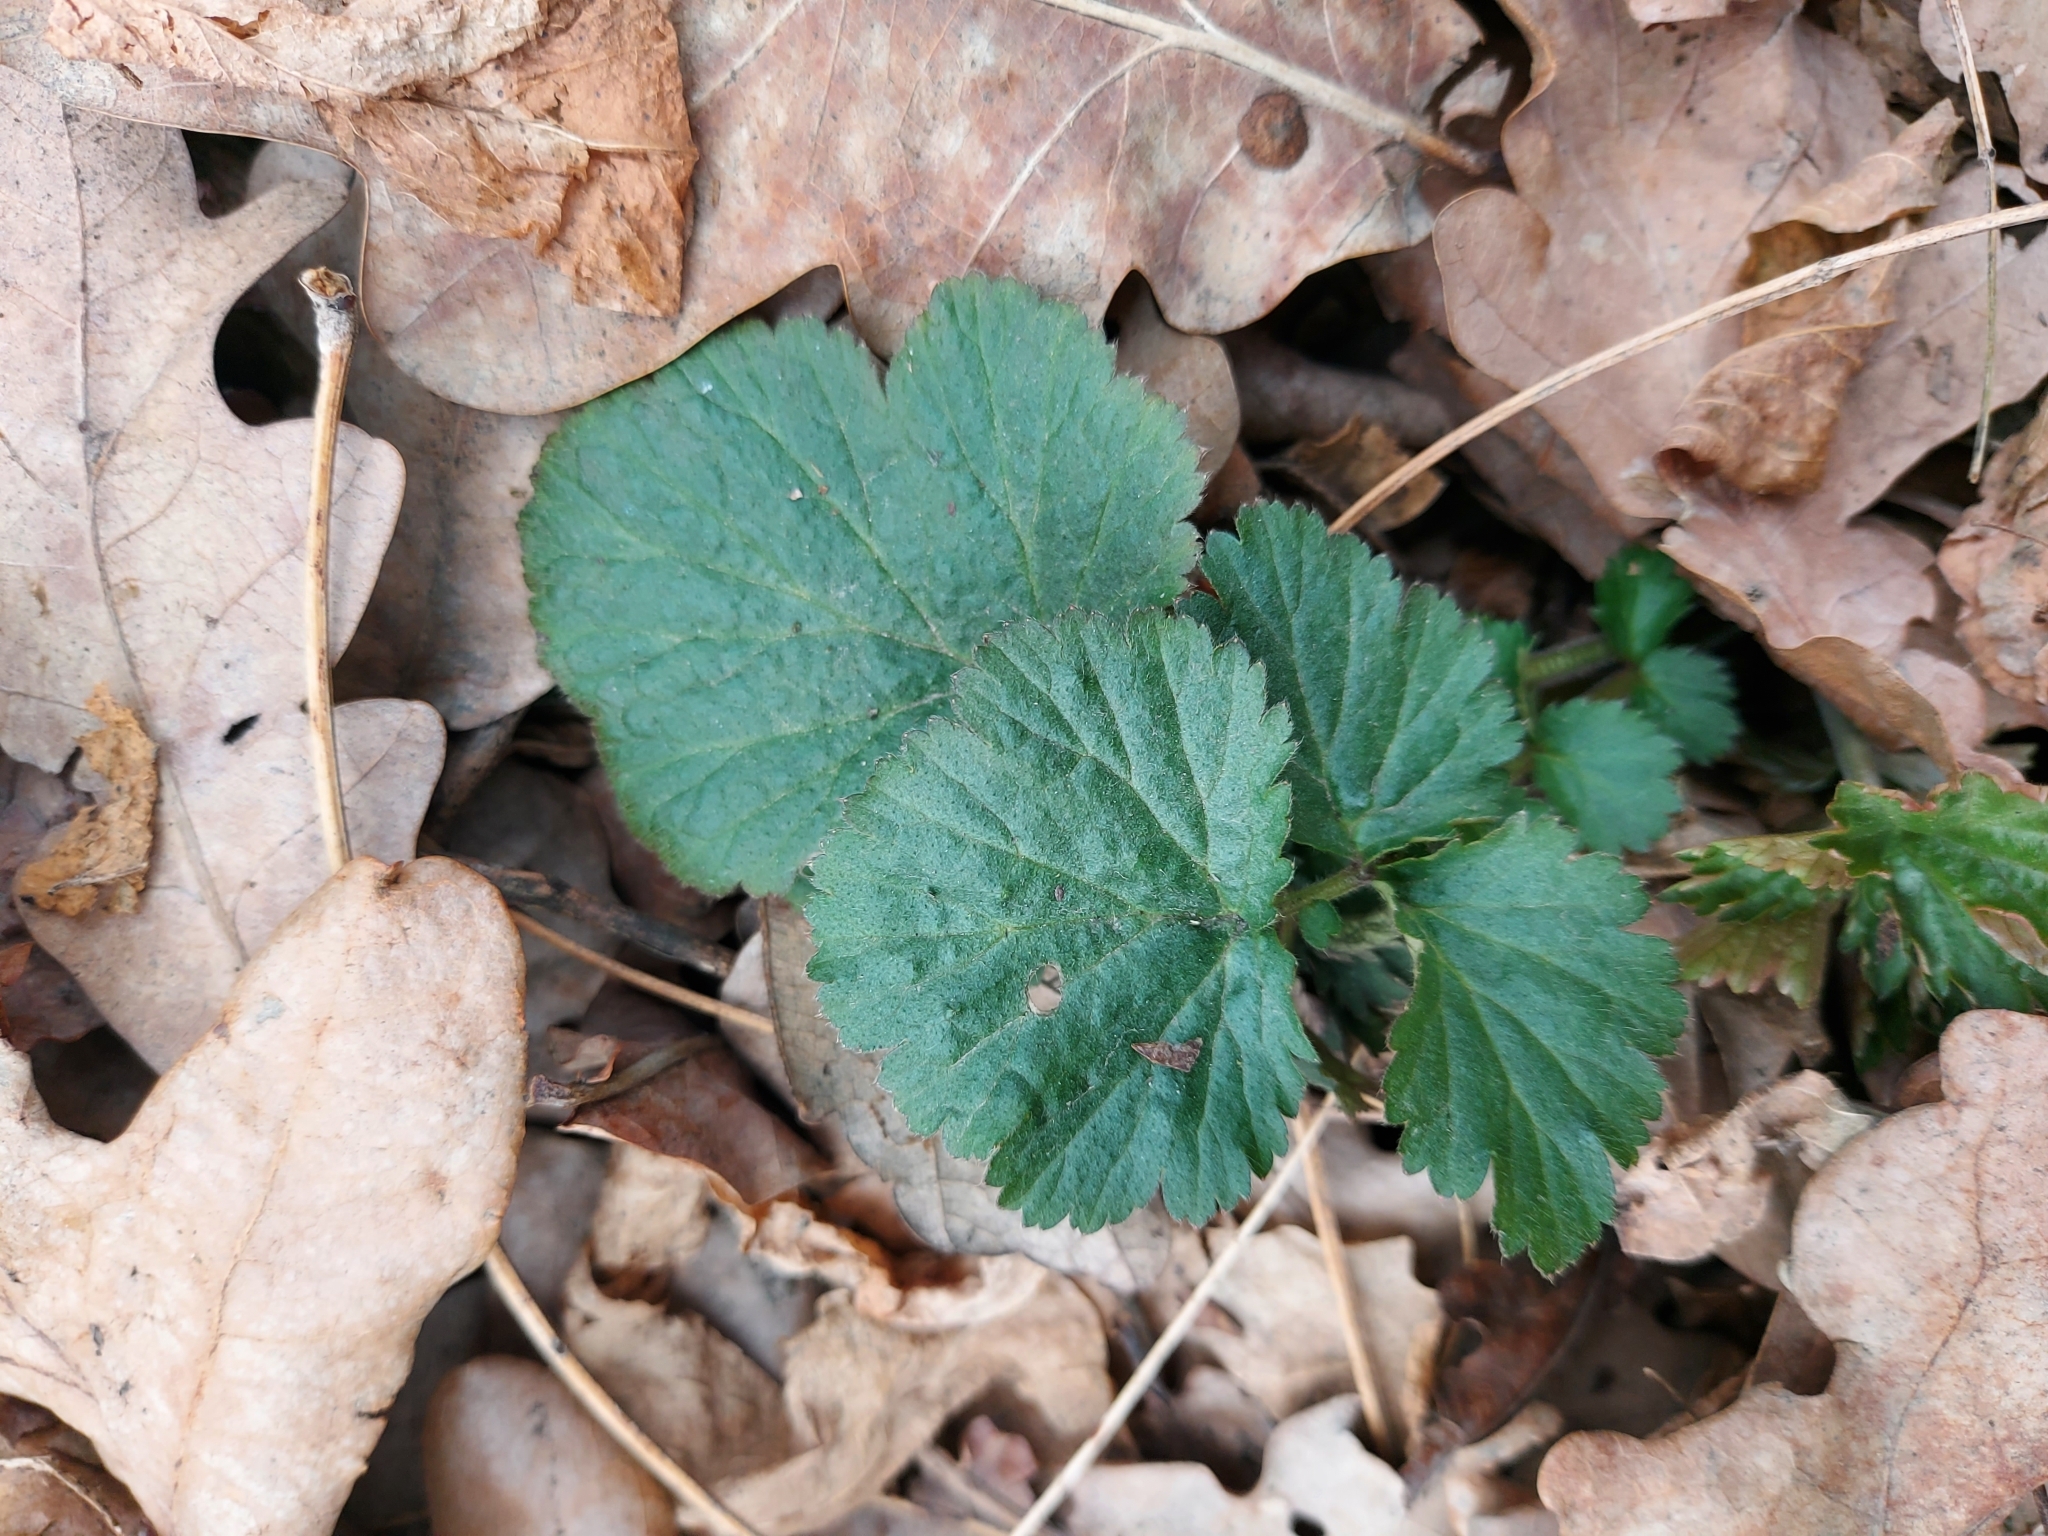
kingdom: Plantae
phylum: Tracheophyta
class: Magnoliopsida
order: Rosales
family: Rosaceae
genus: Geum
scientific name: Geum urbanum
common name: Wood avens
